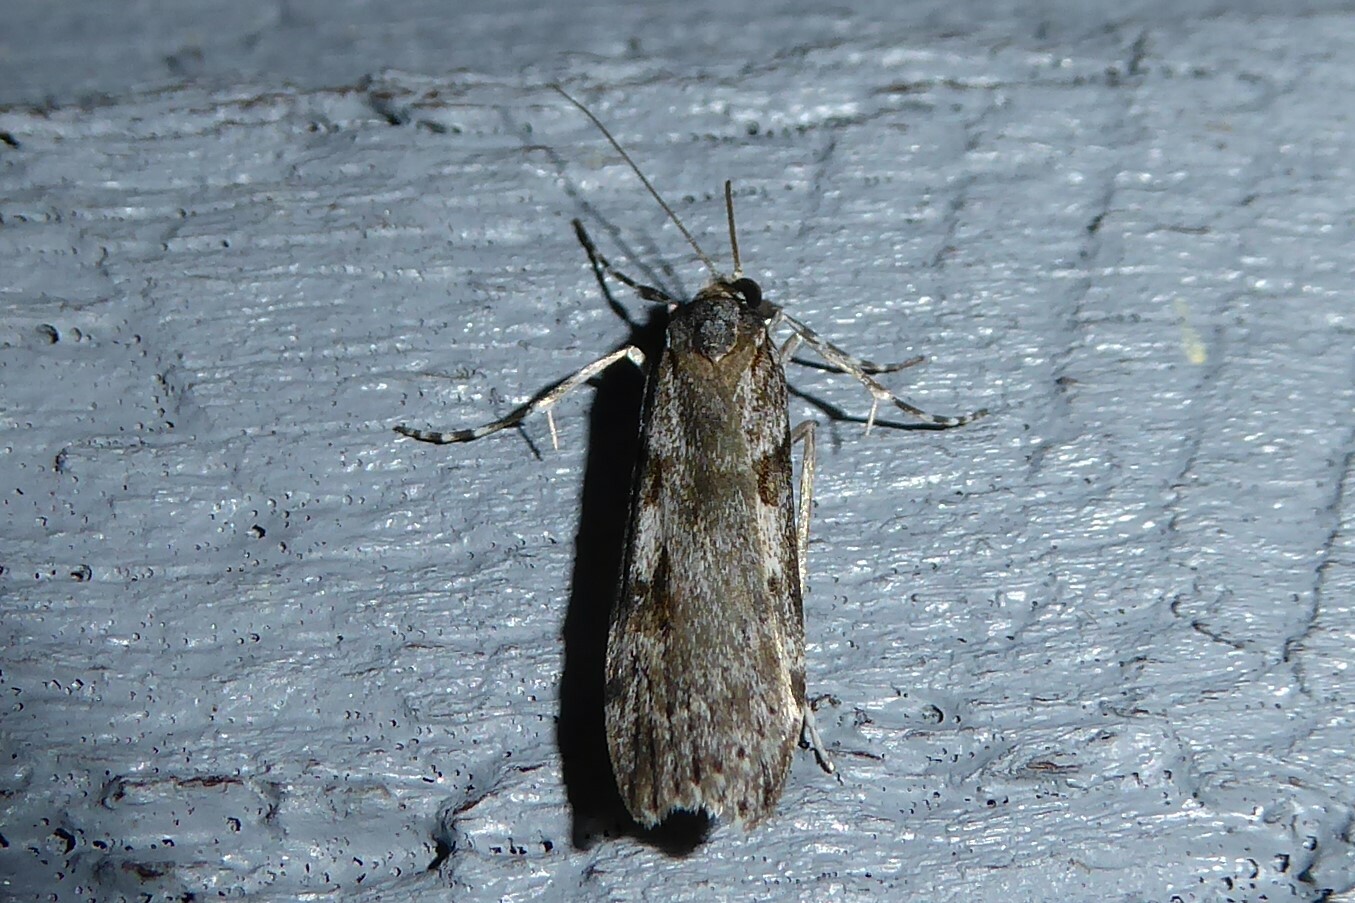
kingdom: Animalia
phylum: Arthropoda
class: Insecta
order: Lepidoptera
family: Crambidae
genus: Scoparia
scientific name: Scoparia halopis
